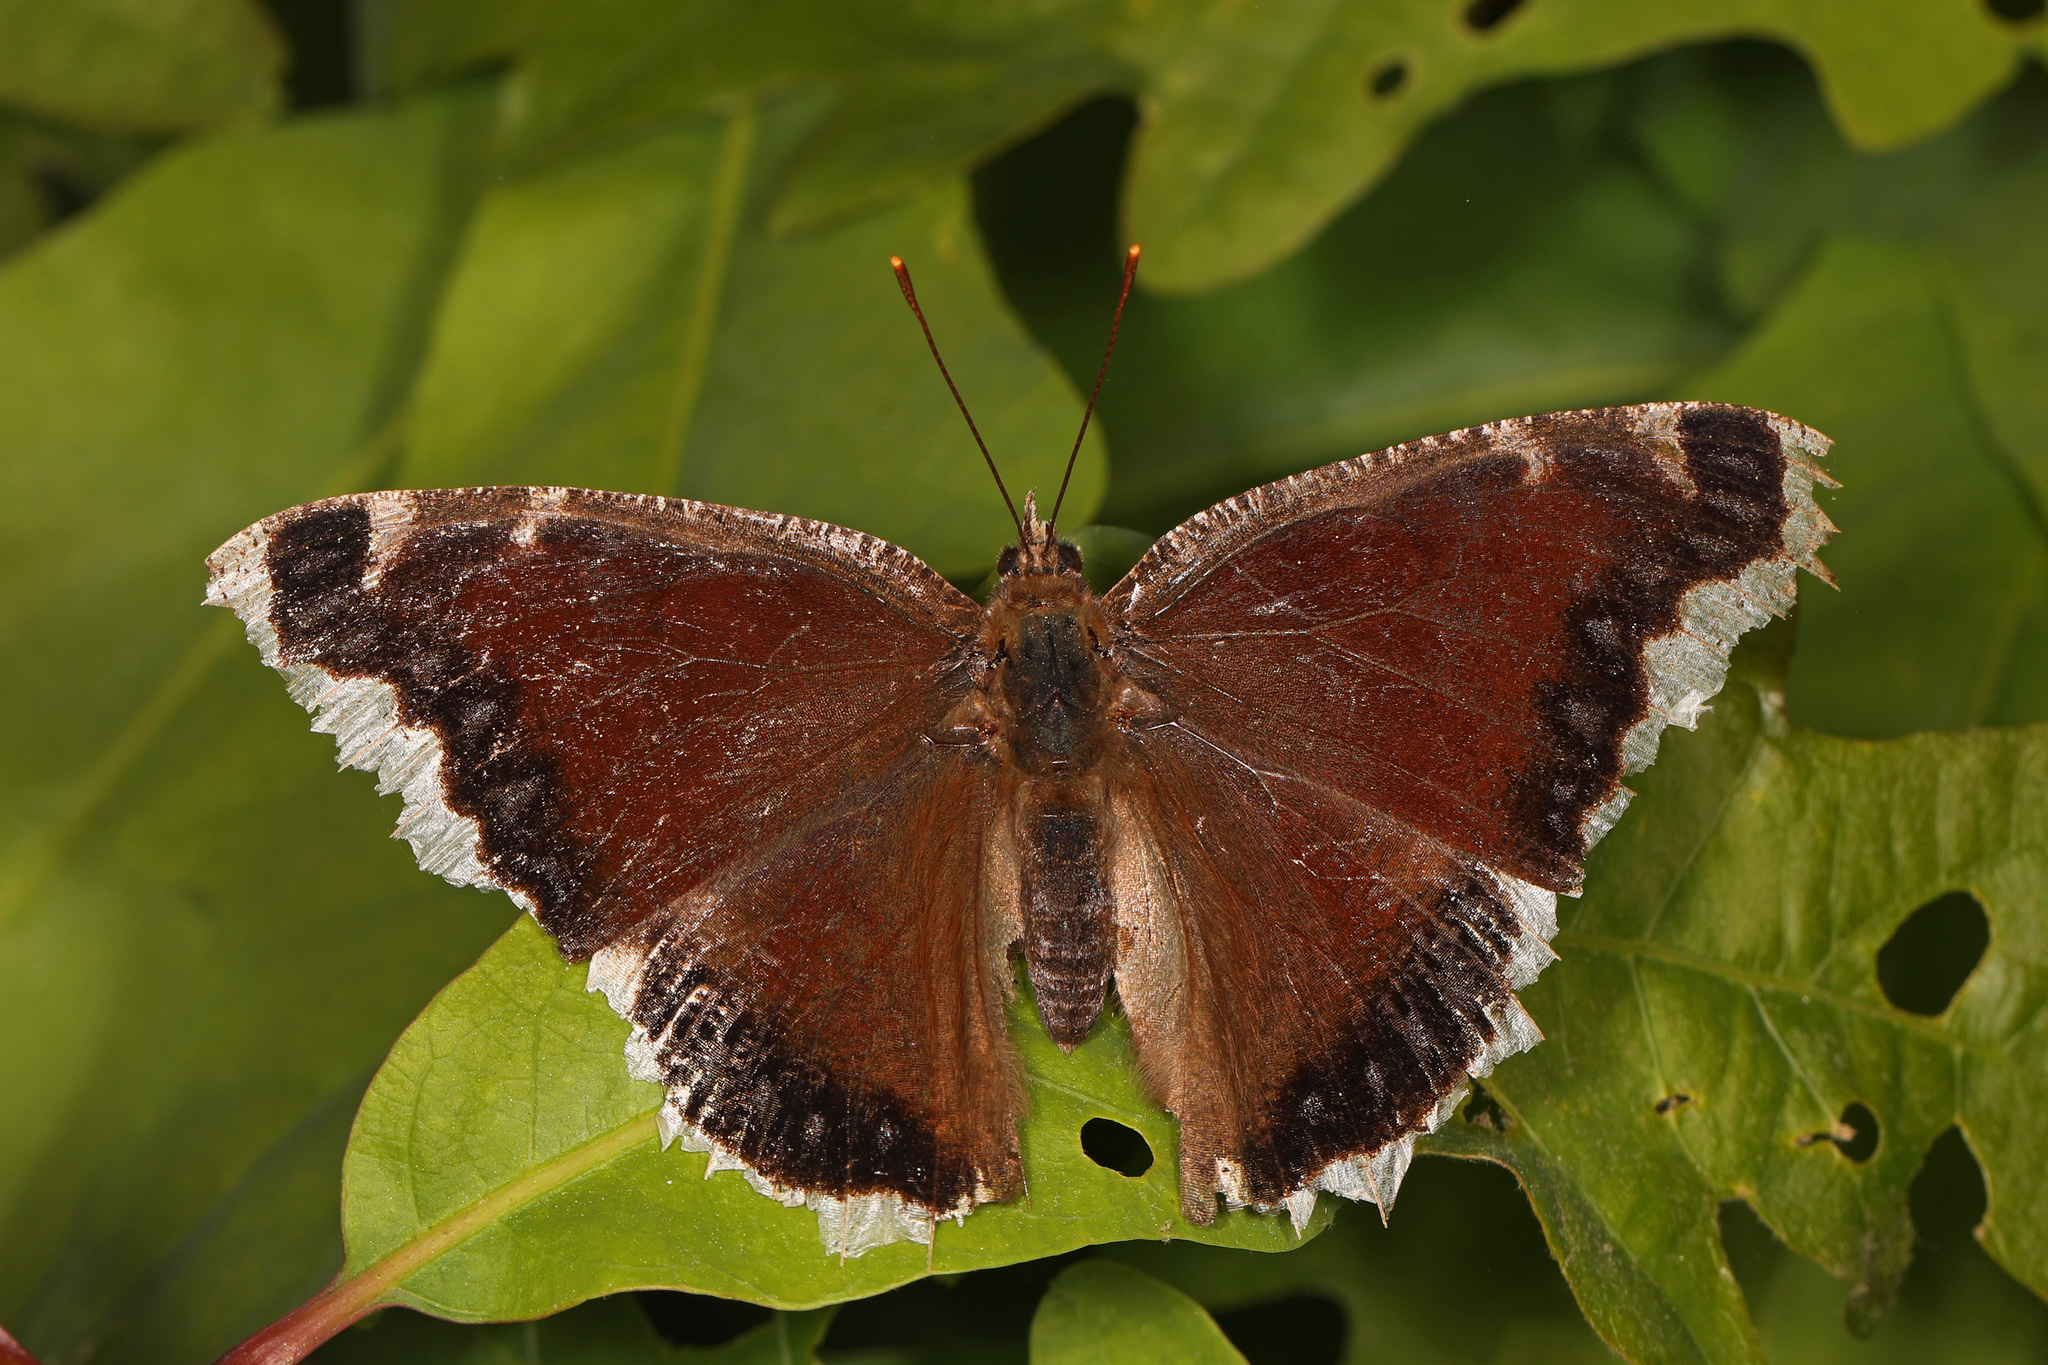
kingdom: Animalia
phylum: Arthropoda
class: Insecta
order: Lepidoptera
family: Nymphalidae
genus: Nymphalis
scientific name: Nymphalis antiopa
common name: Camberwell beauty
